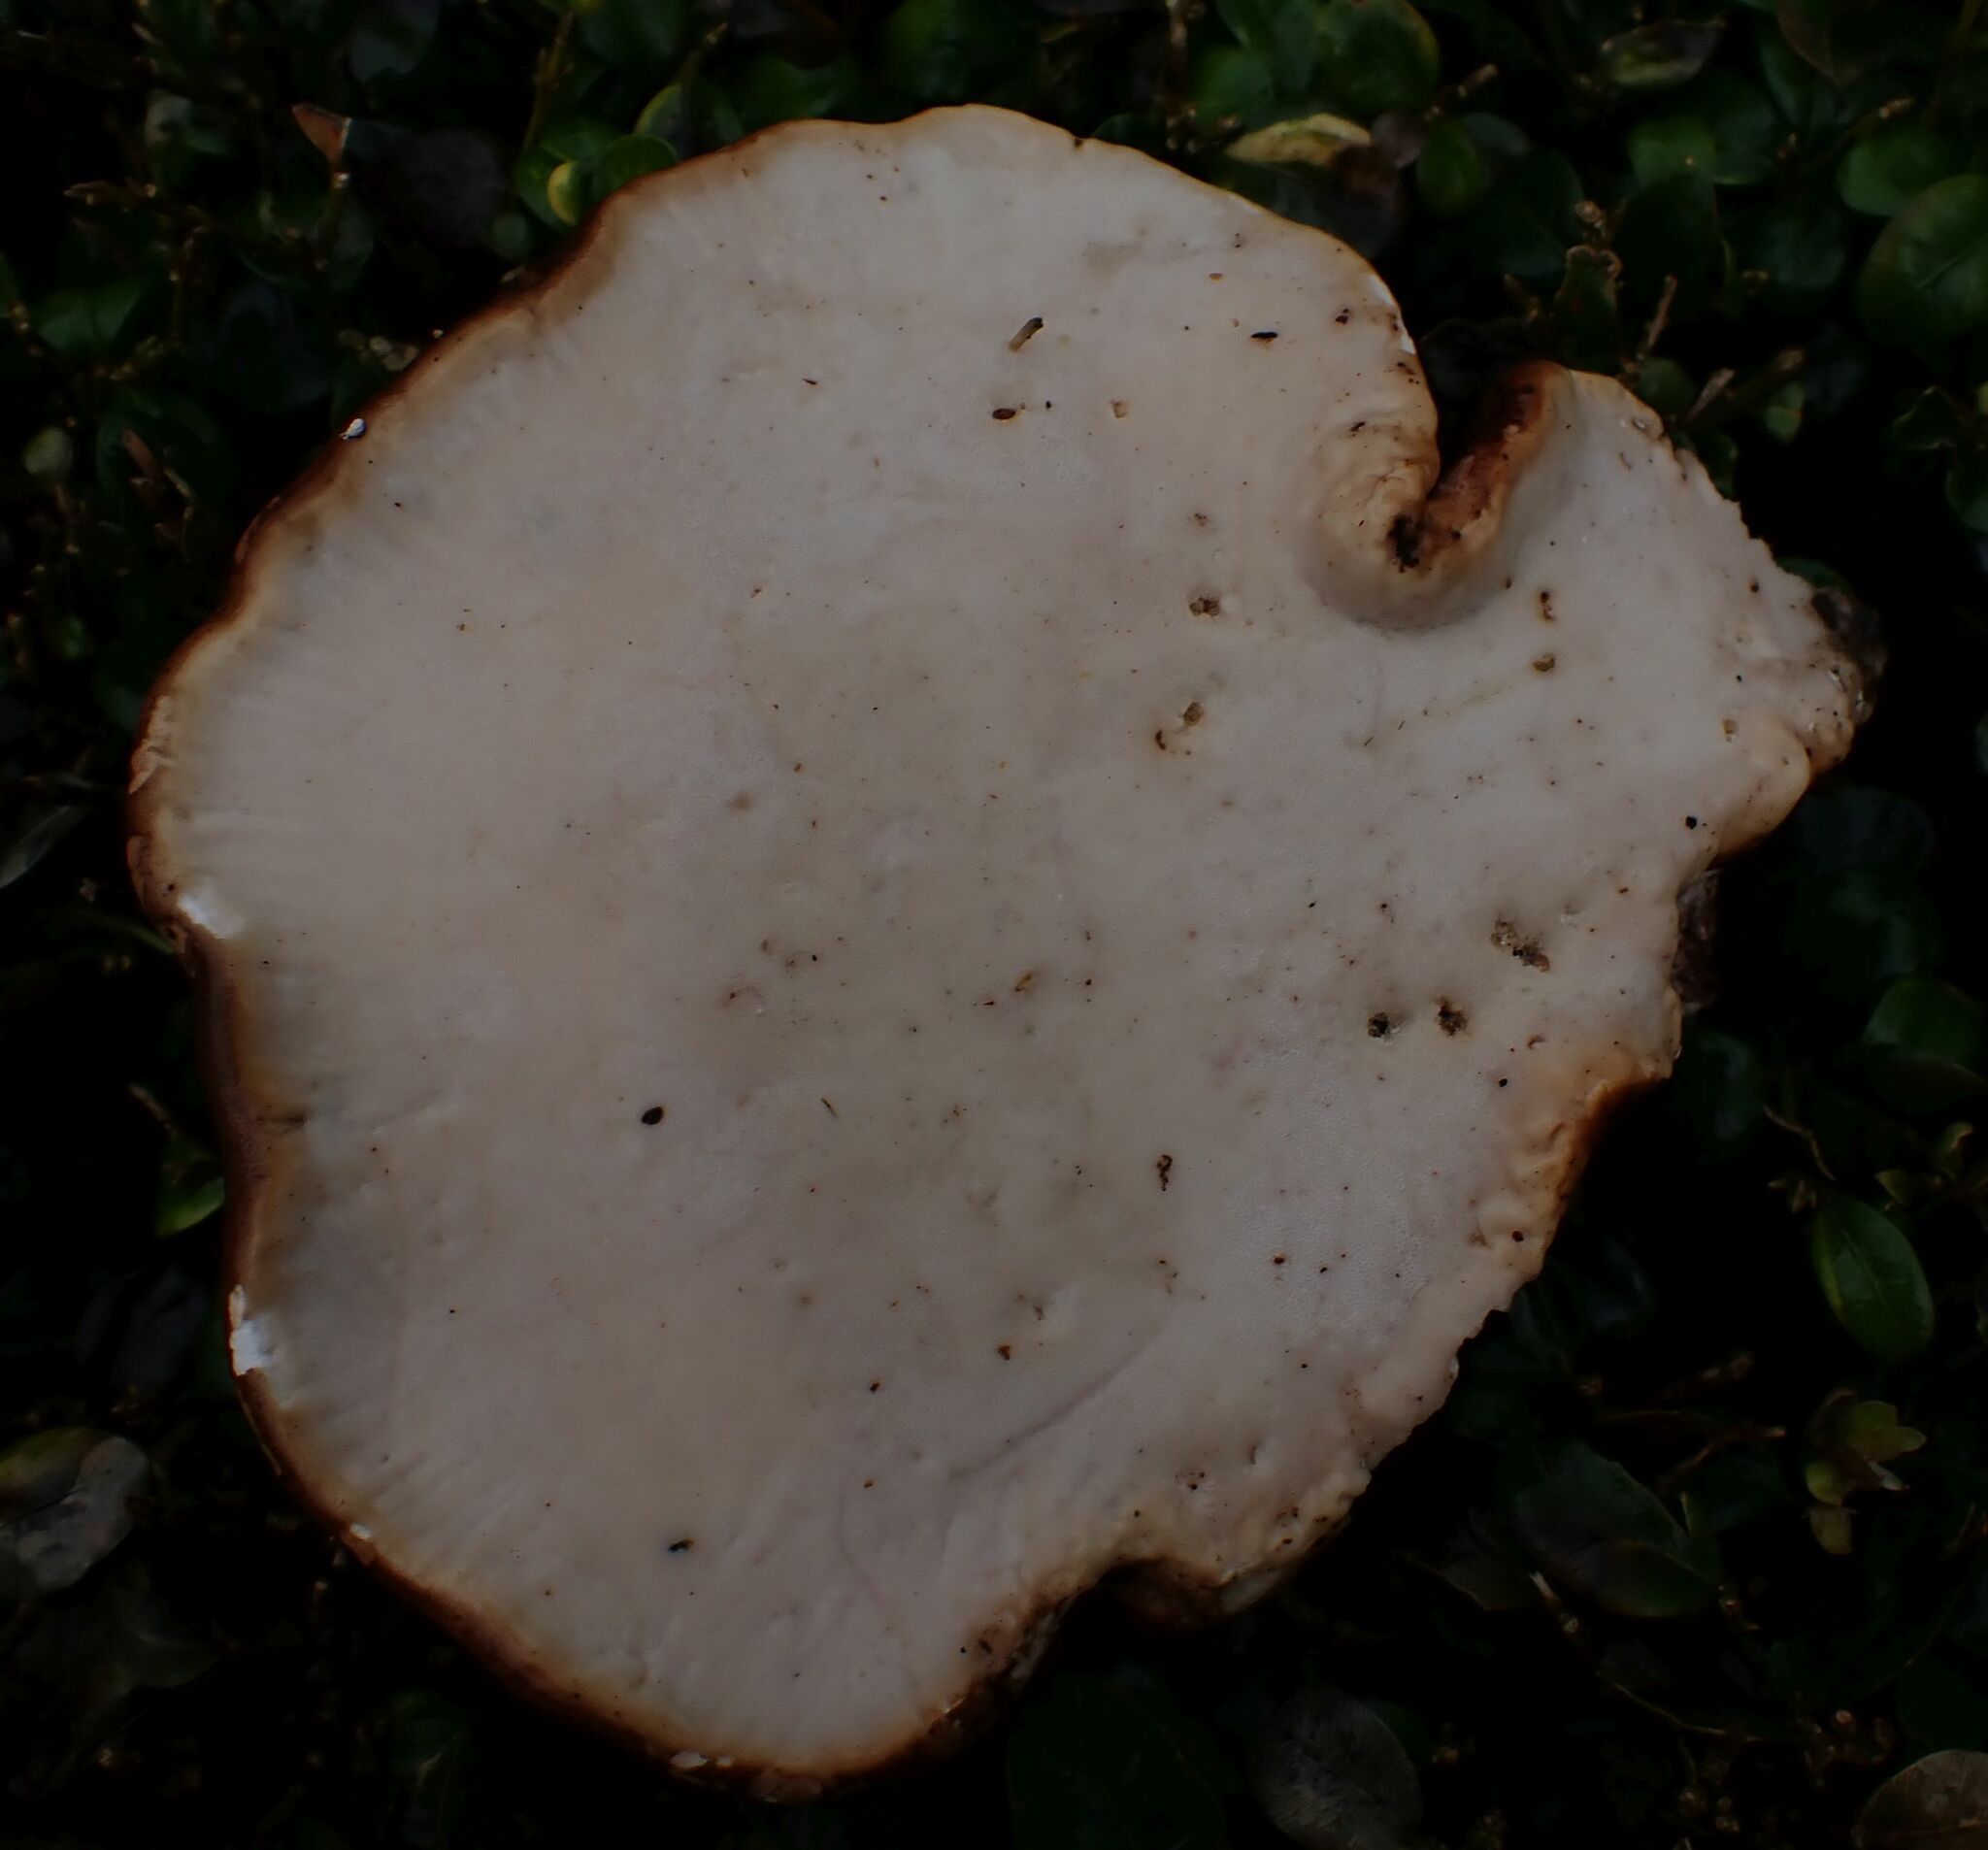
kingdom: Fungi
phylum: Basidiomycota
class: Agaricomycetes
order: Polyporales
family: Fomitopsidaceae
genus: Fomitopsis
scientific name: Fomitopsis betulina
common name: Birch polypore
